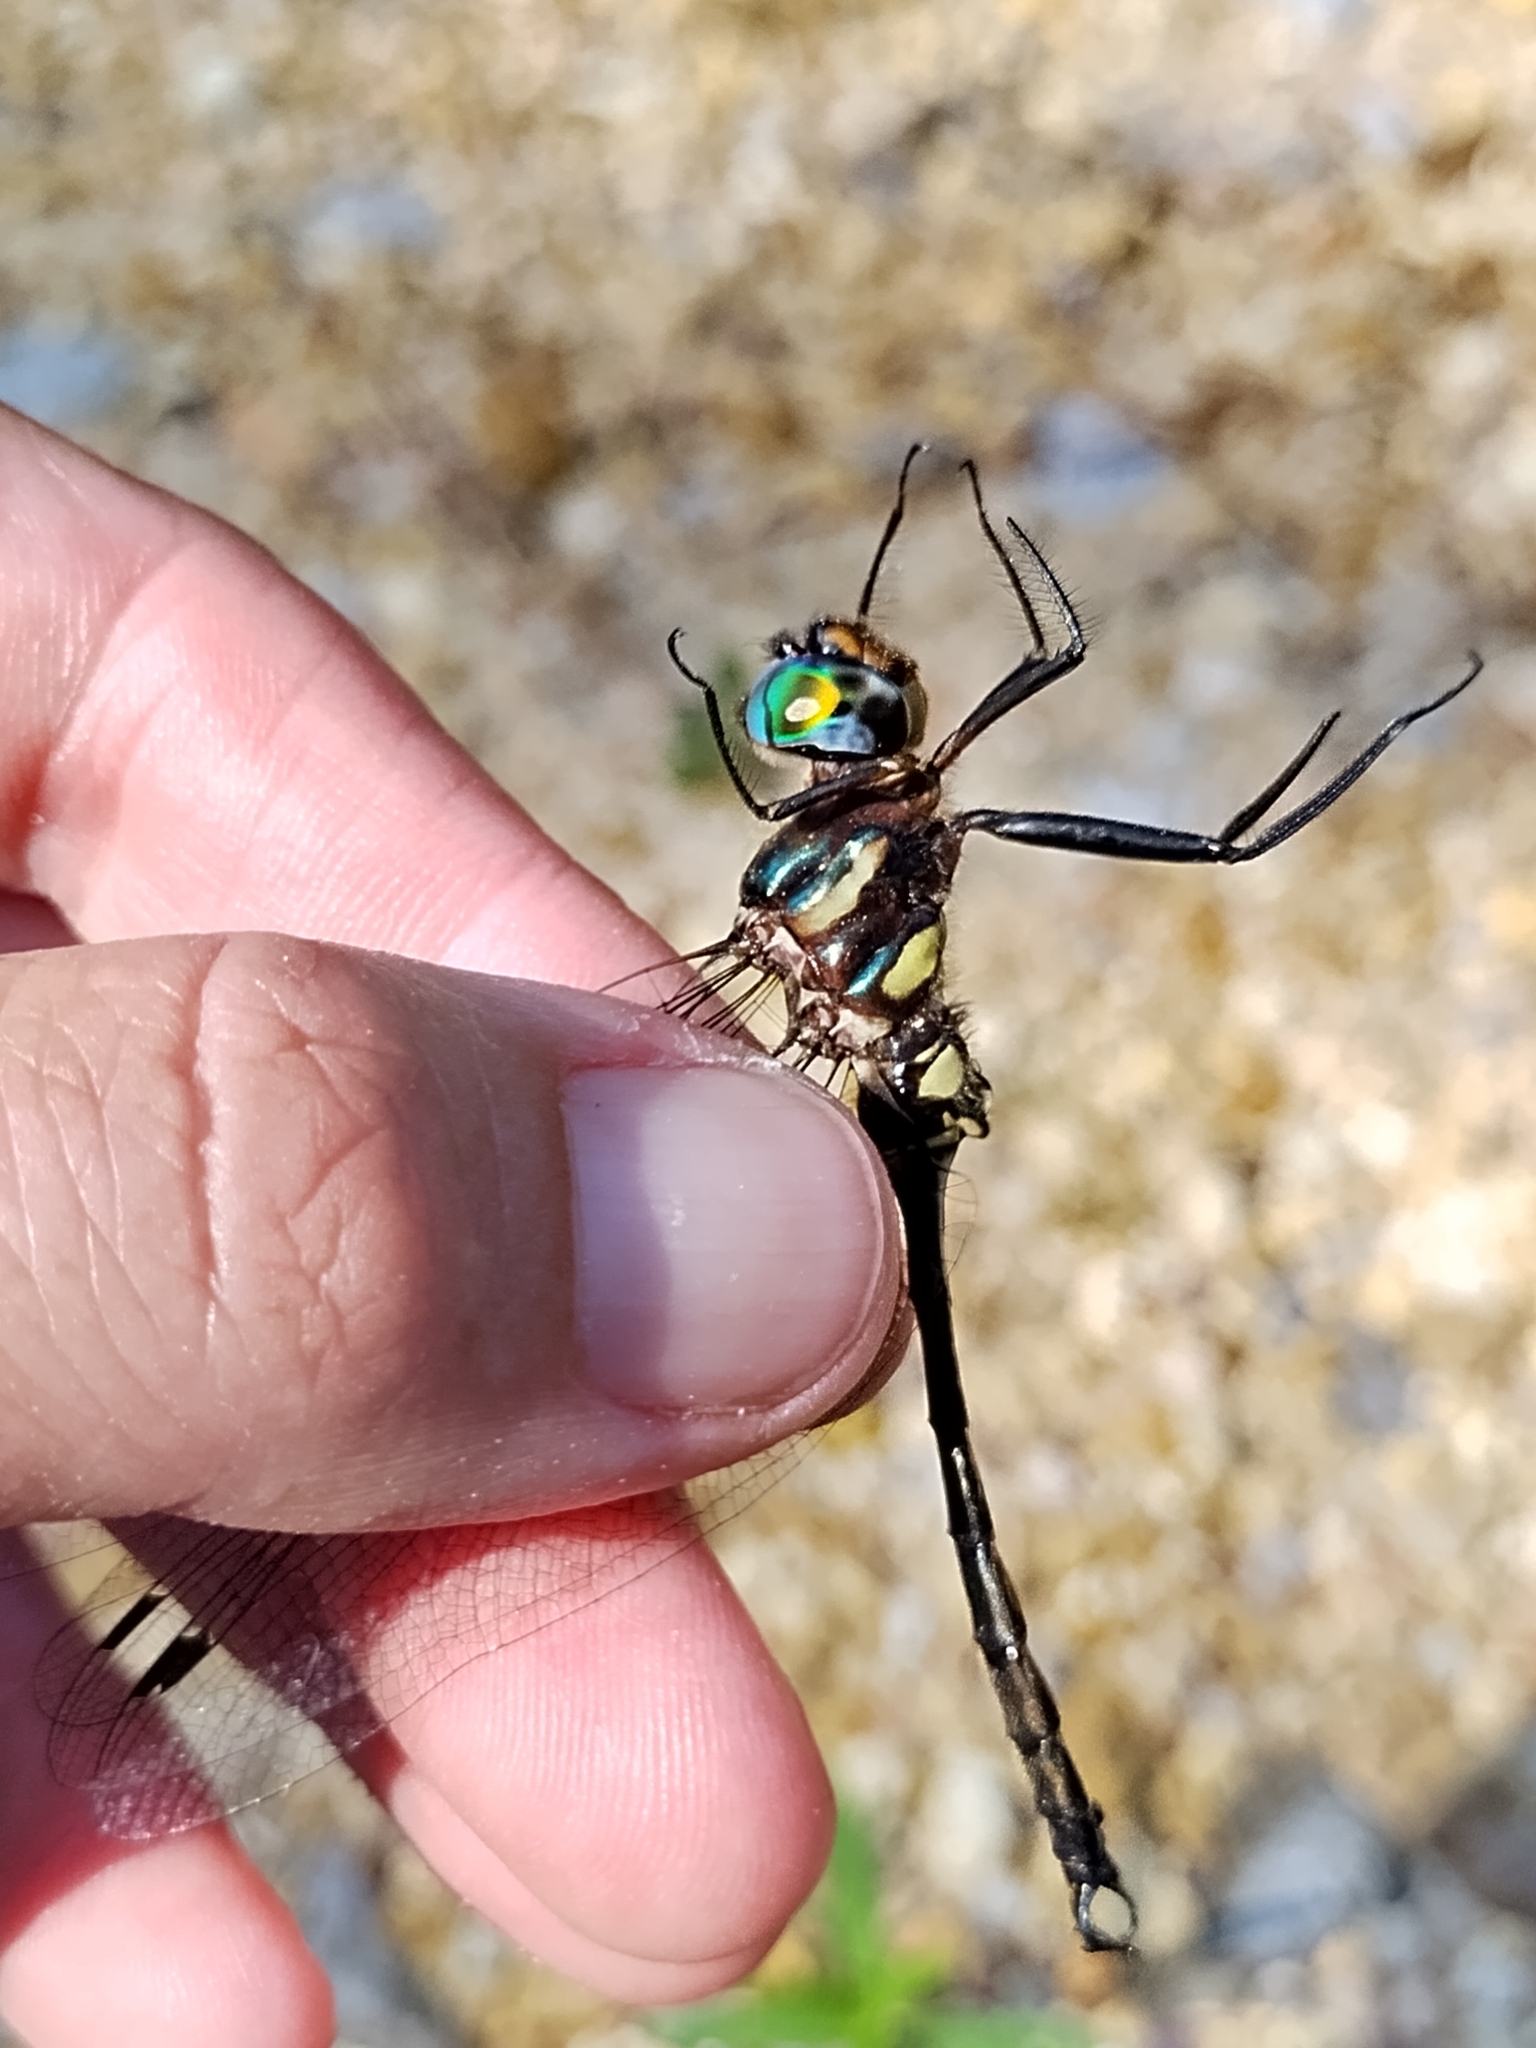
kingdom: Animalia
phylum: Arthropoda
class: Insecta
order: Odonata
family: Corduliidae
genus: Somatochlora
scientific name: Somatochlora tenebrosa
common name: Clamp-tipped emerald
